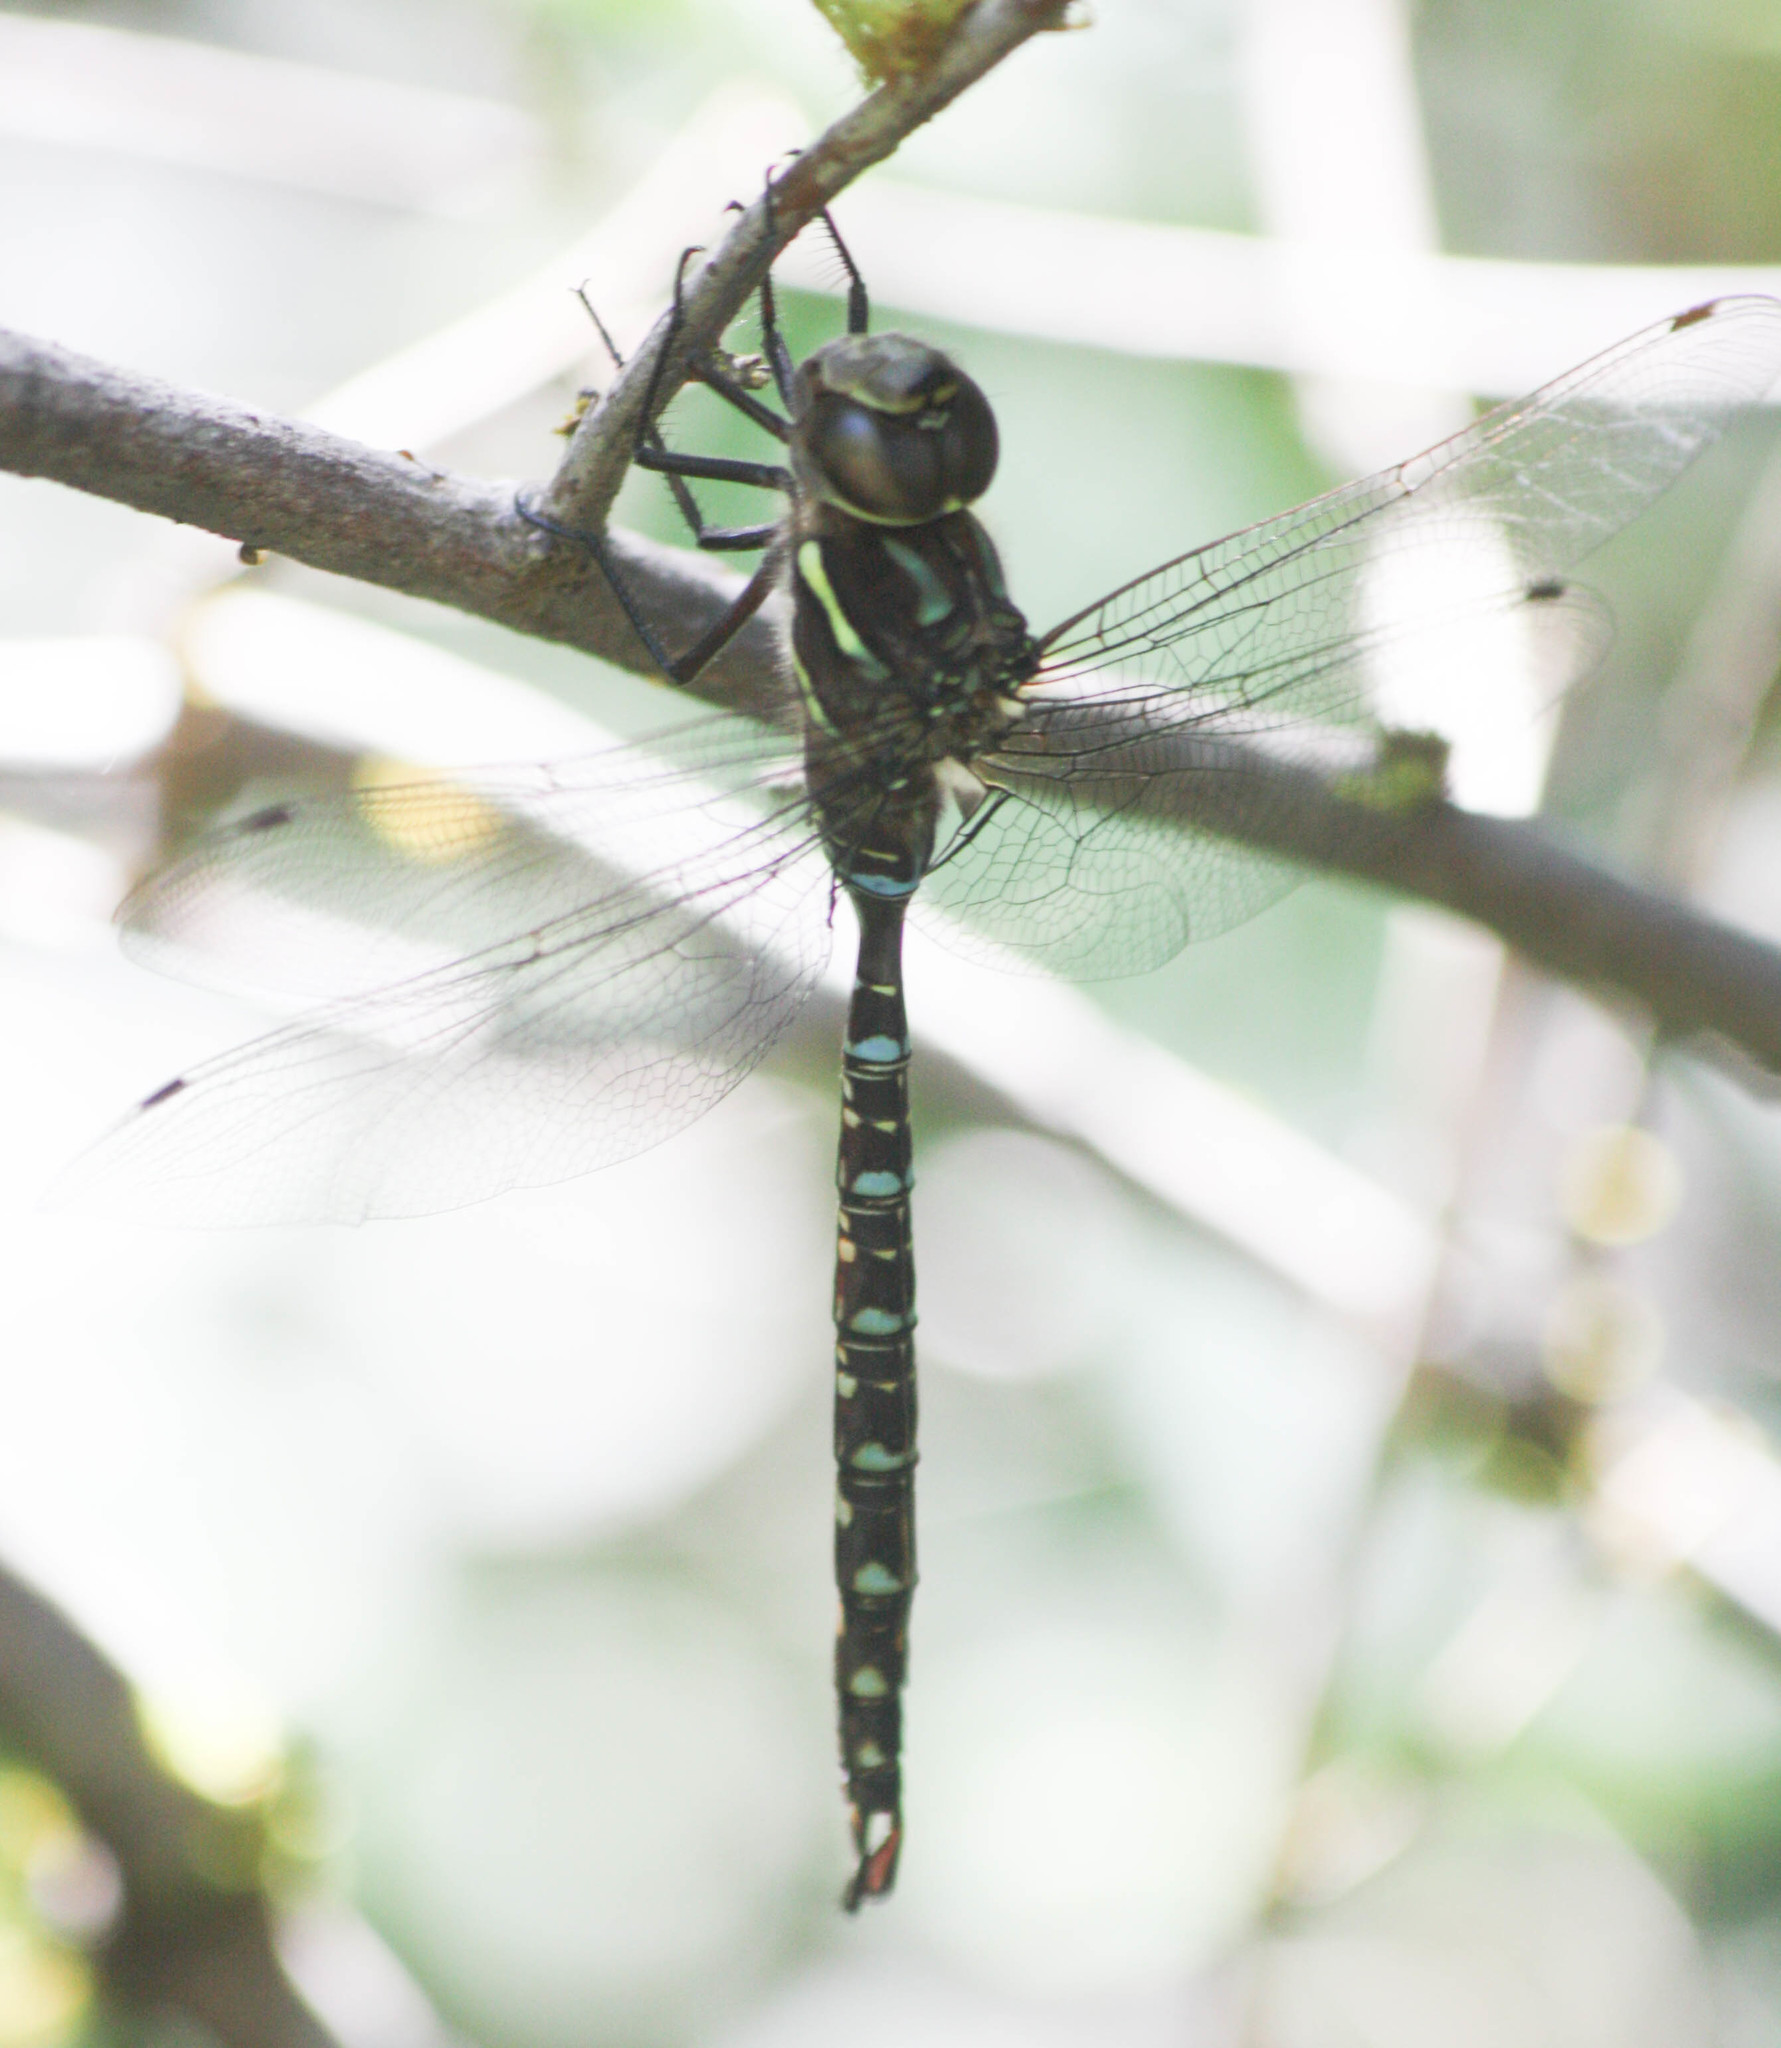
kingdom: Animalia
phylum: Arthropoda
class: Insecta
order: Odonata
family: Aeshnidae
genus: Aeshna
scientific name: Aeshna umbrosa
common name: Shadow darner
